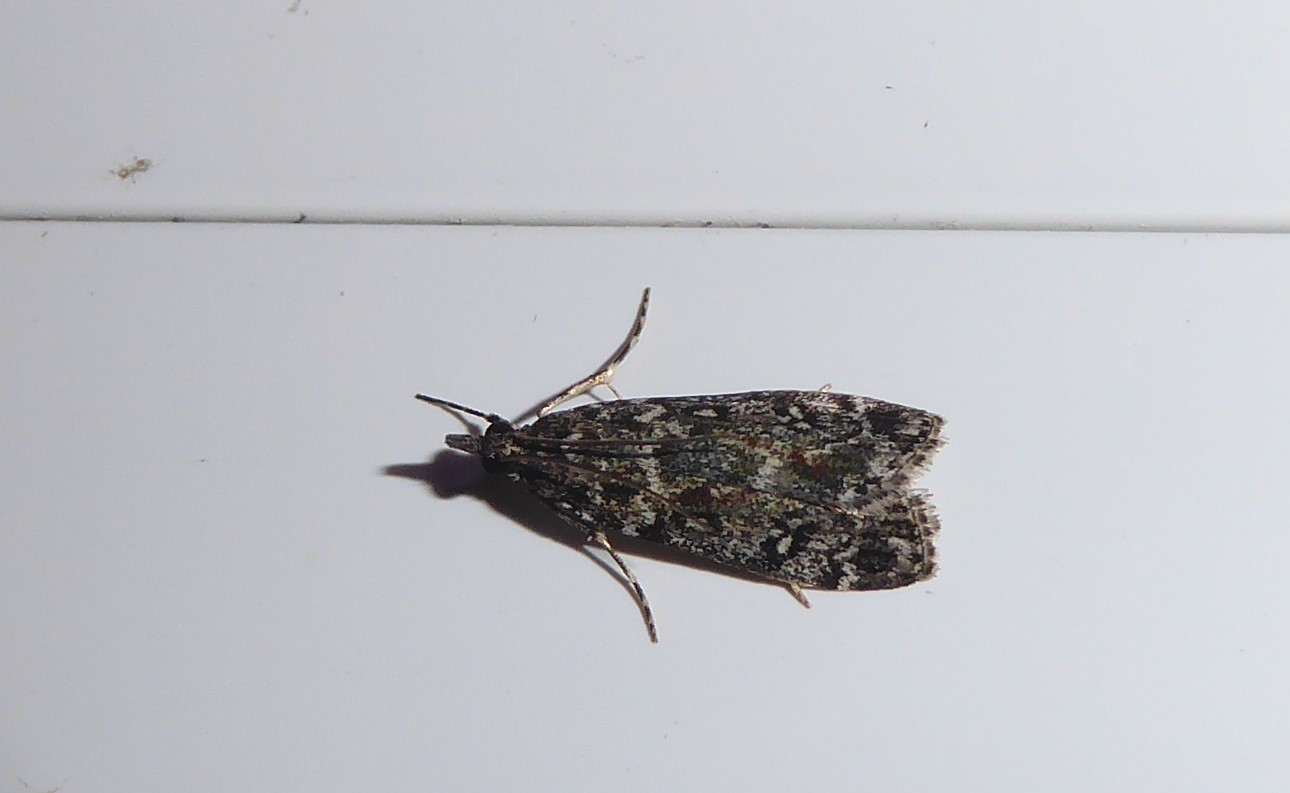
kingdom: Animalia
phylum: Arthropoda
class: Insecta
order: Lepidoptera
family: Crambidae
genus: Eudonia
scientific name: Eudonia philerga
